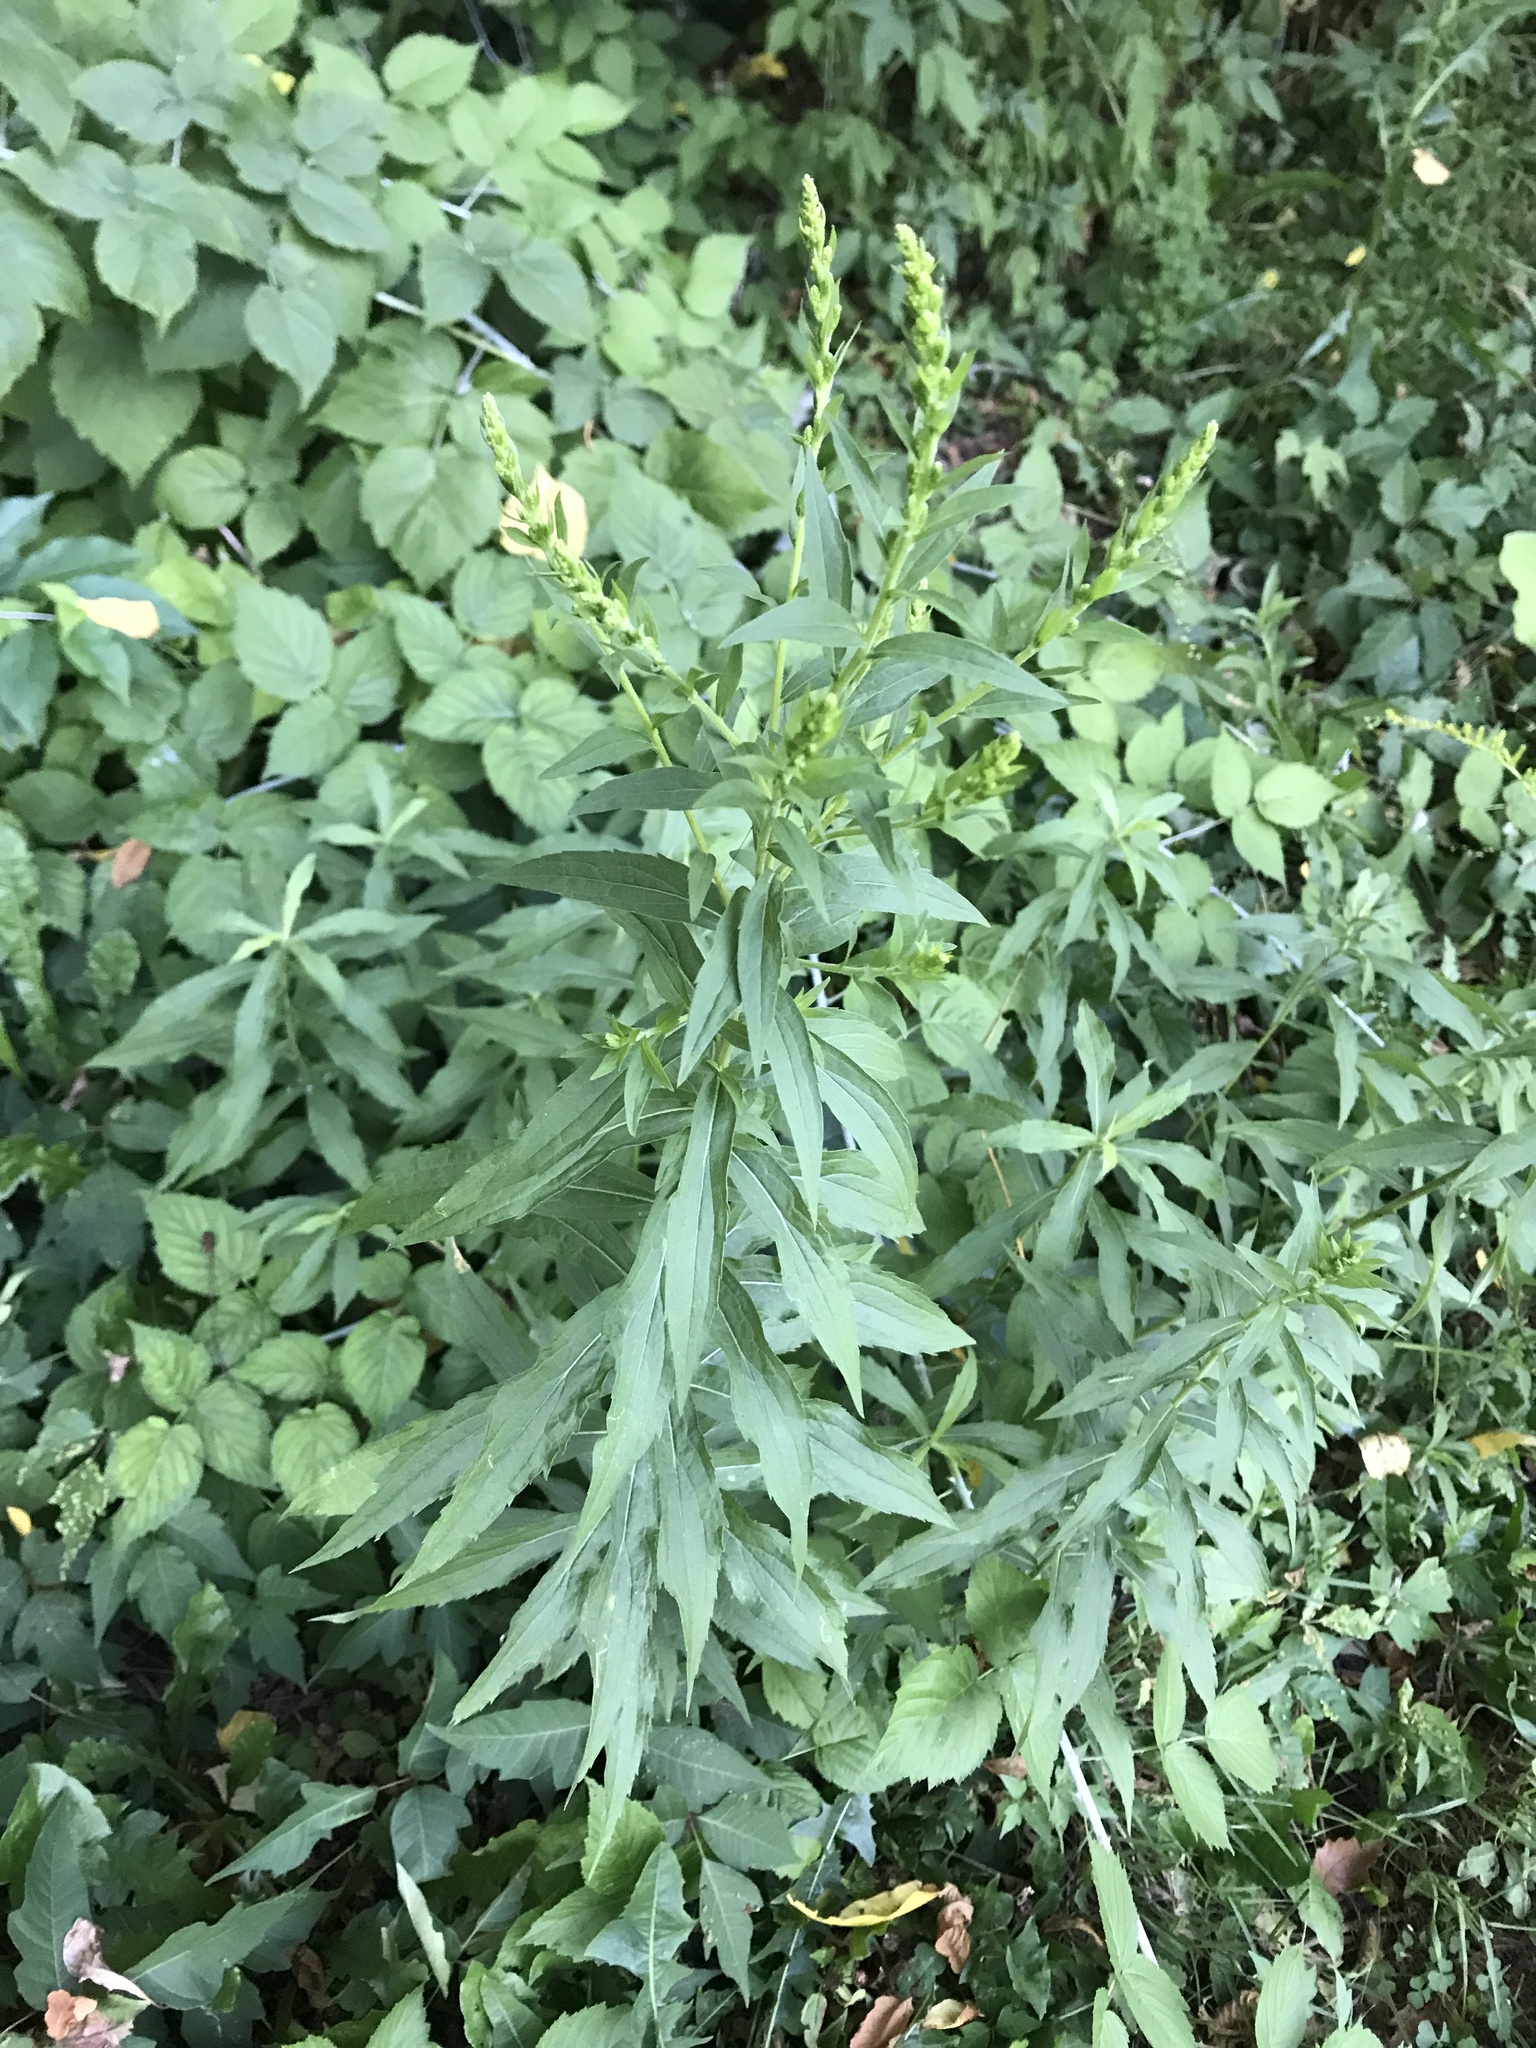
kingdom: Plantae
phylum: Tracheophyta
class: Magnoliopsida
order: Asterales
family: Asteraceae
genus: Solidago
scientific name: Solidago canadensis
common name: Canada goldenrod
